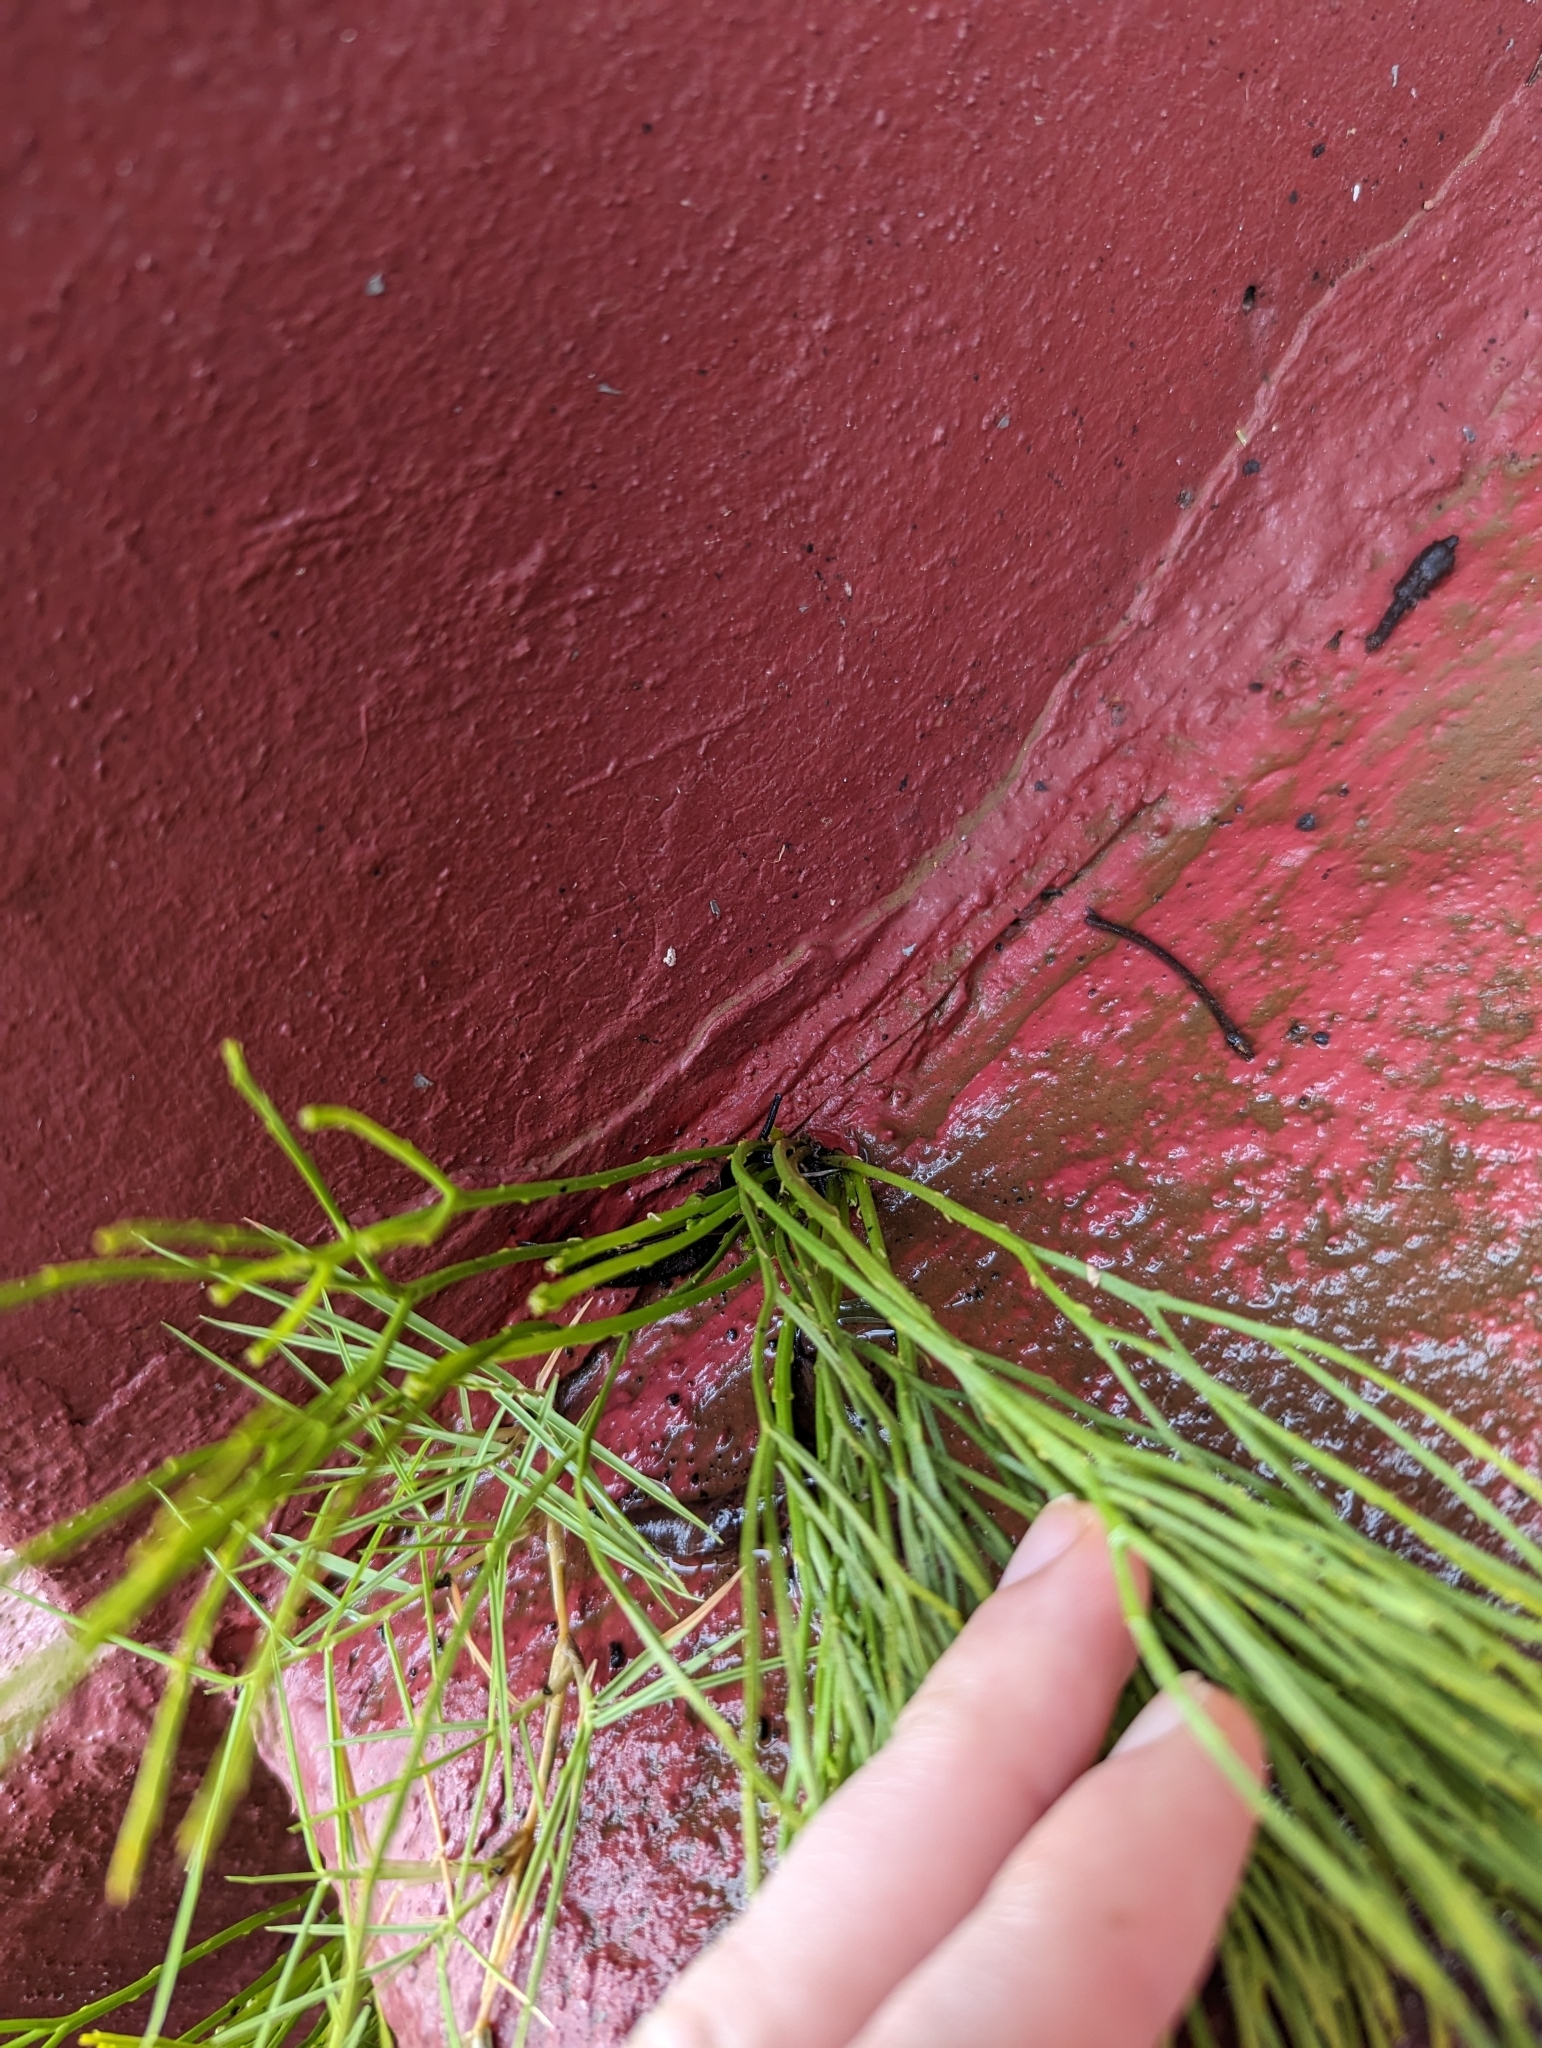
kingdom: Plantae
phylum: Tracheophyta
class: Polypodiopsida
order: Psilotales
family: Psilotaceae
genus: Psilotum
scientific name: Psilotum nudum
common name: Skeleton fork fern
